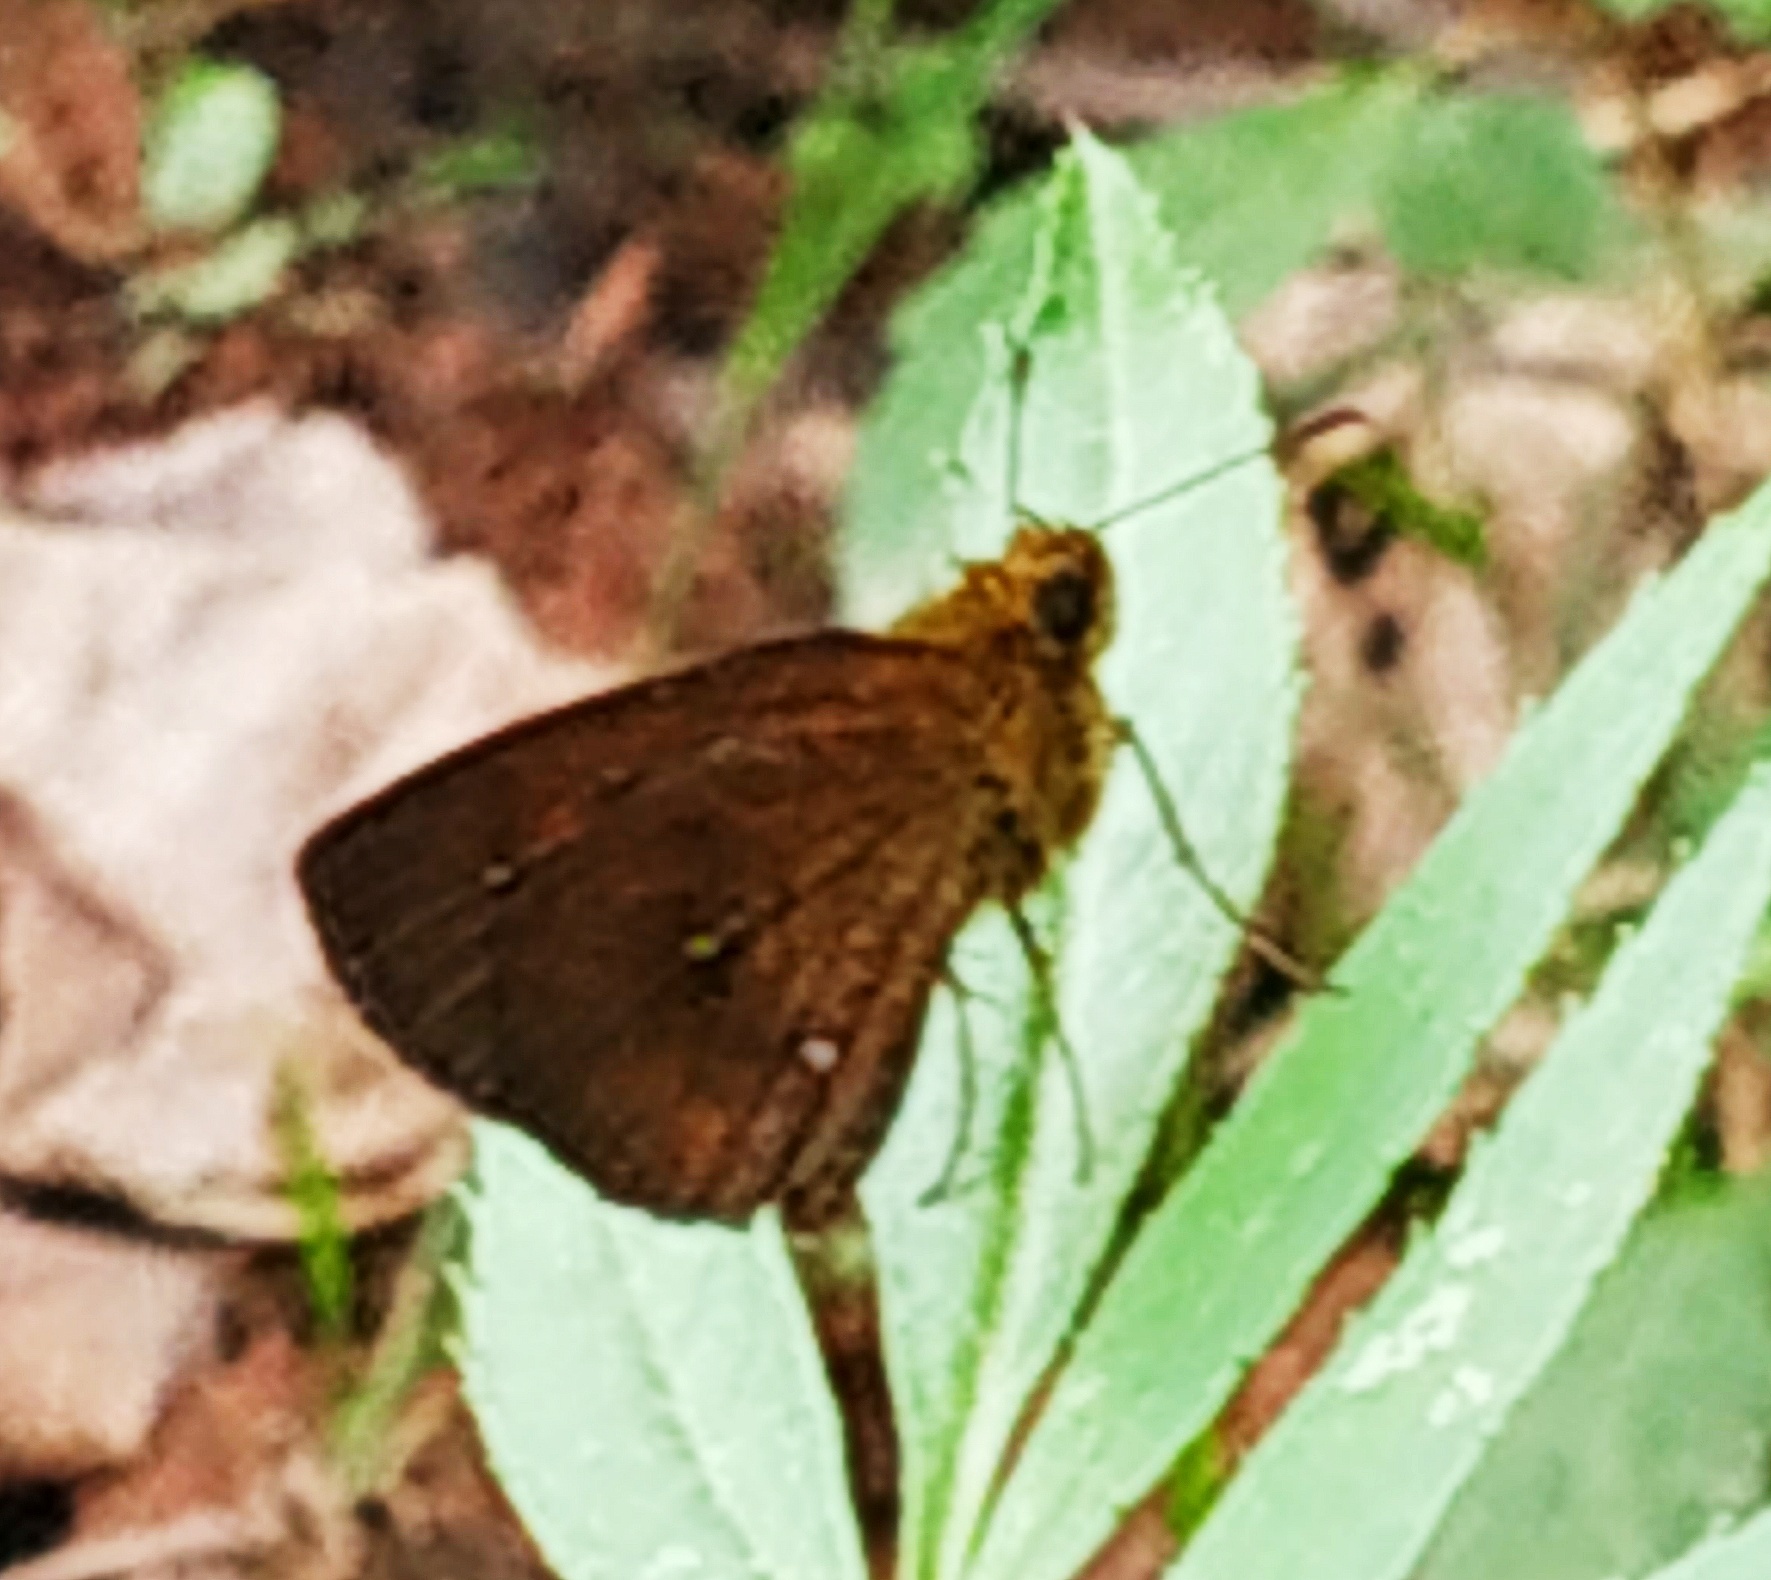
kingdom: Animalia
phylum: Arthropoda
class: Insecta
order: Lepidoptera
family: Hesperiidae
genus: Iambrix
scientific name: Iambrix salsala
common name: Chestnut bob
